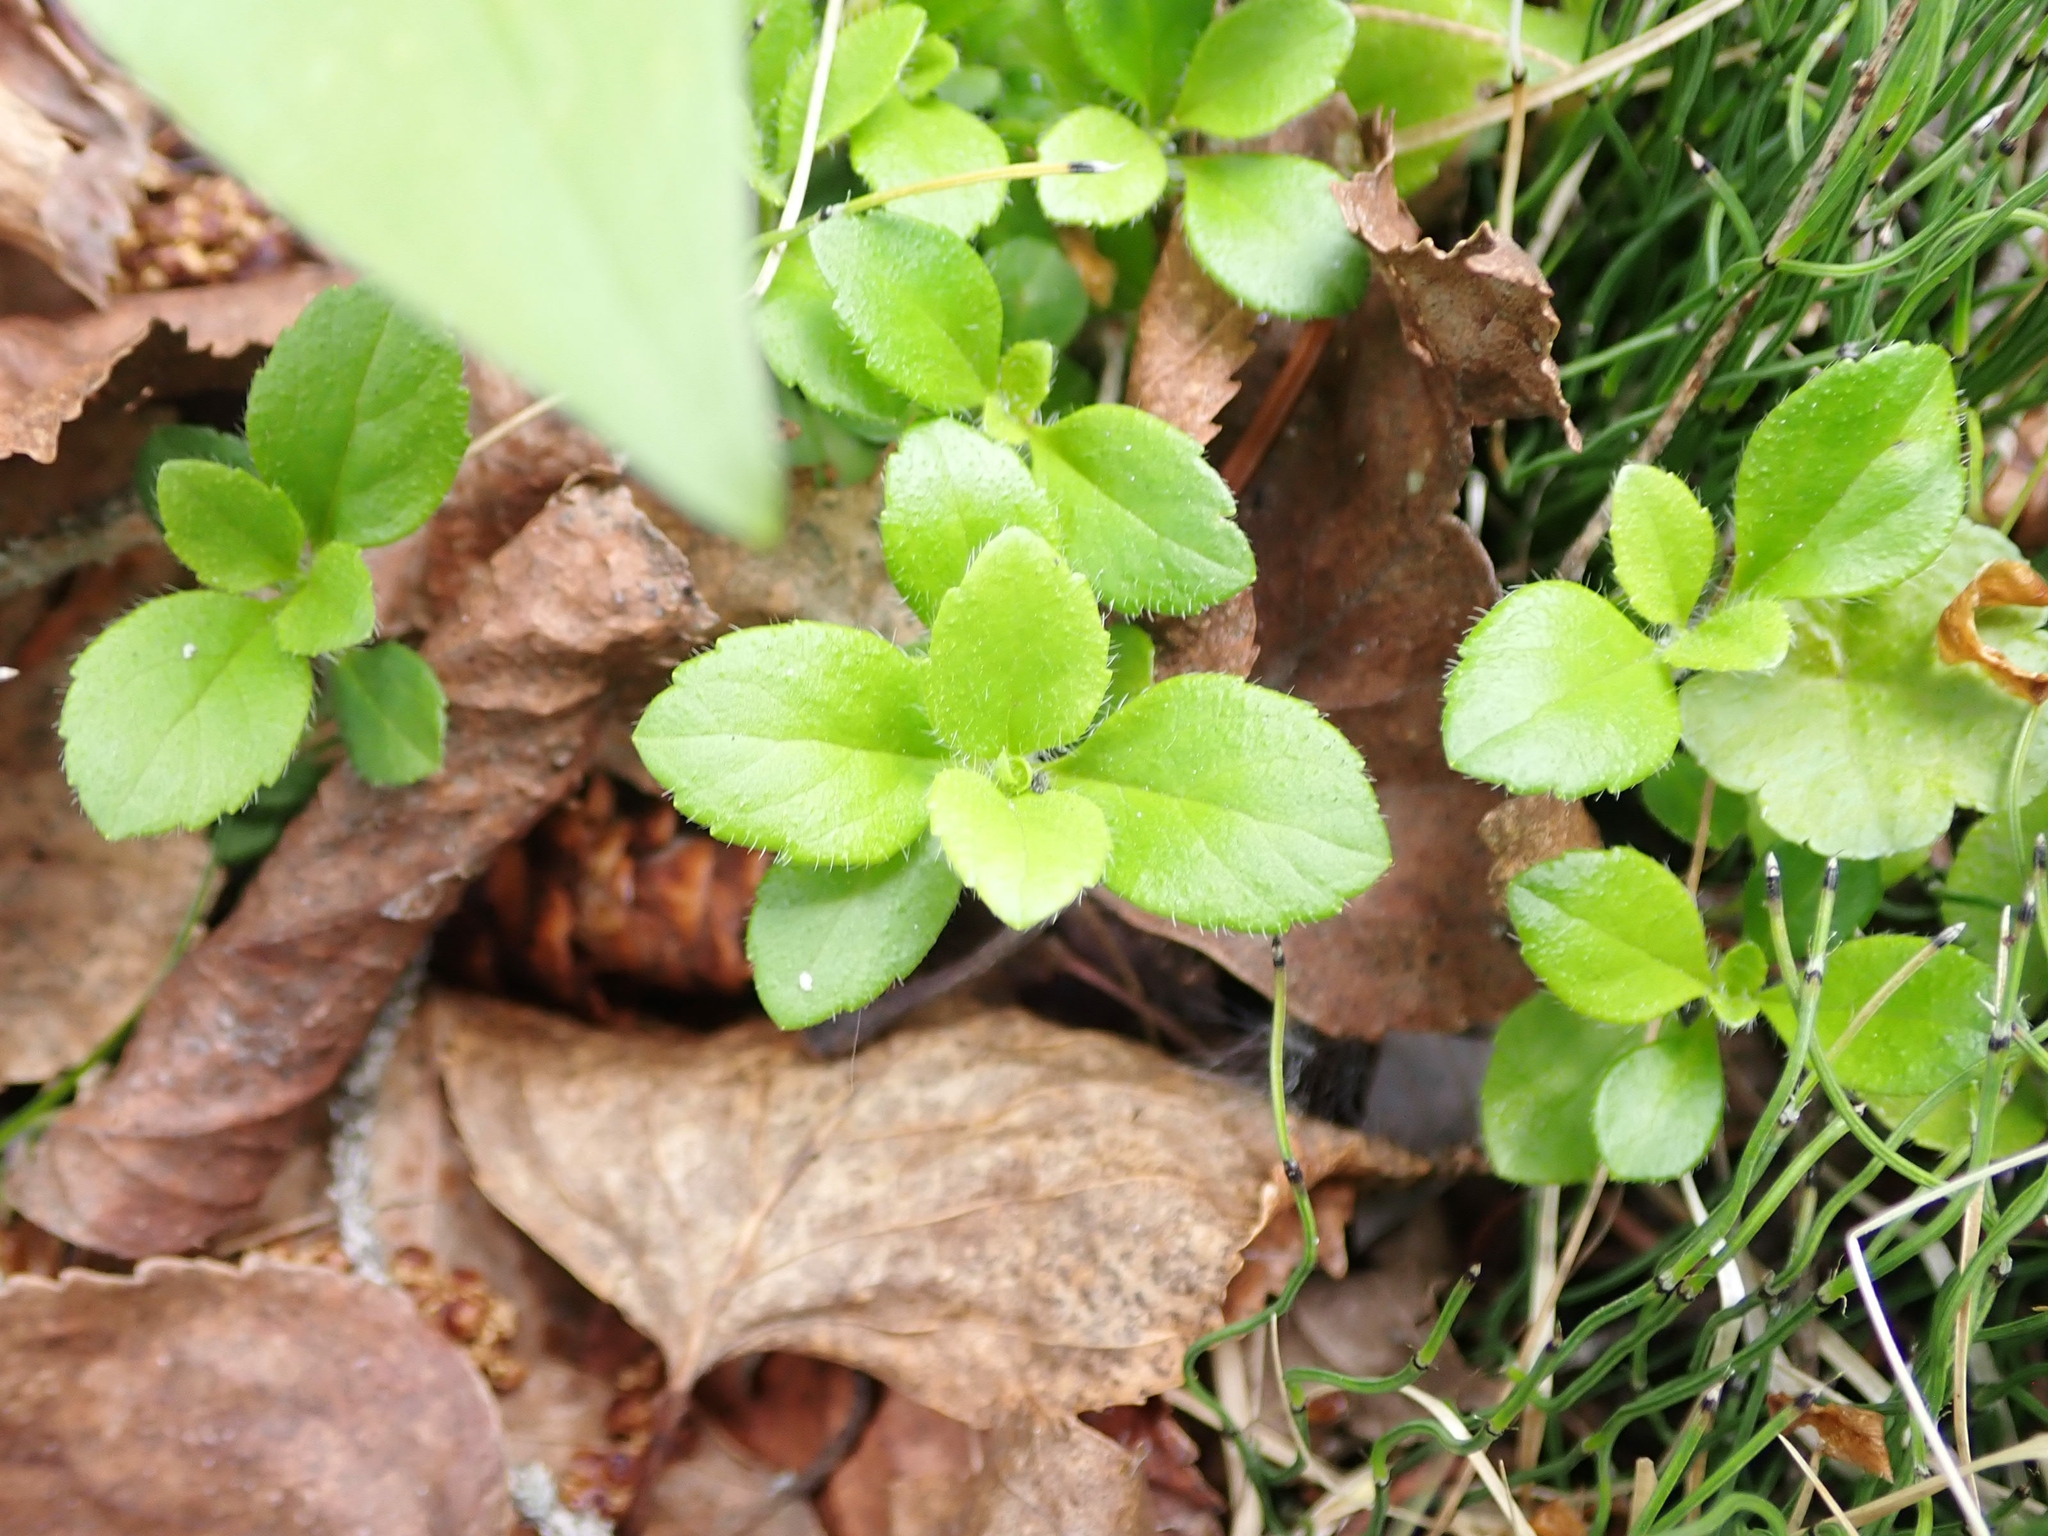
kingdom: Plantae
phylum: Tracheophyta
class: Magnoliopsida
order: Dipsacales
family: Caprifoliaceae
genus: Linnaea
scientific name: Linnaea borealis
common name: Twinflower
